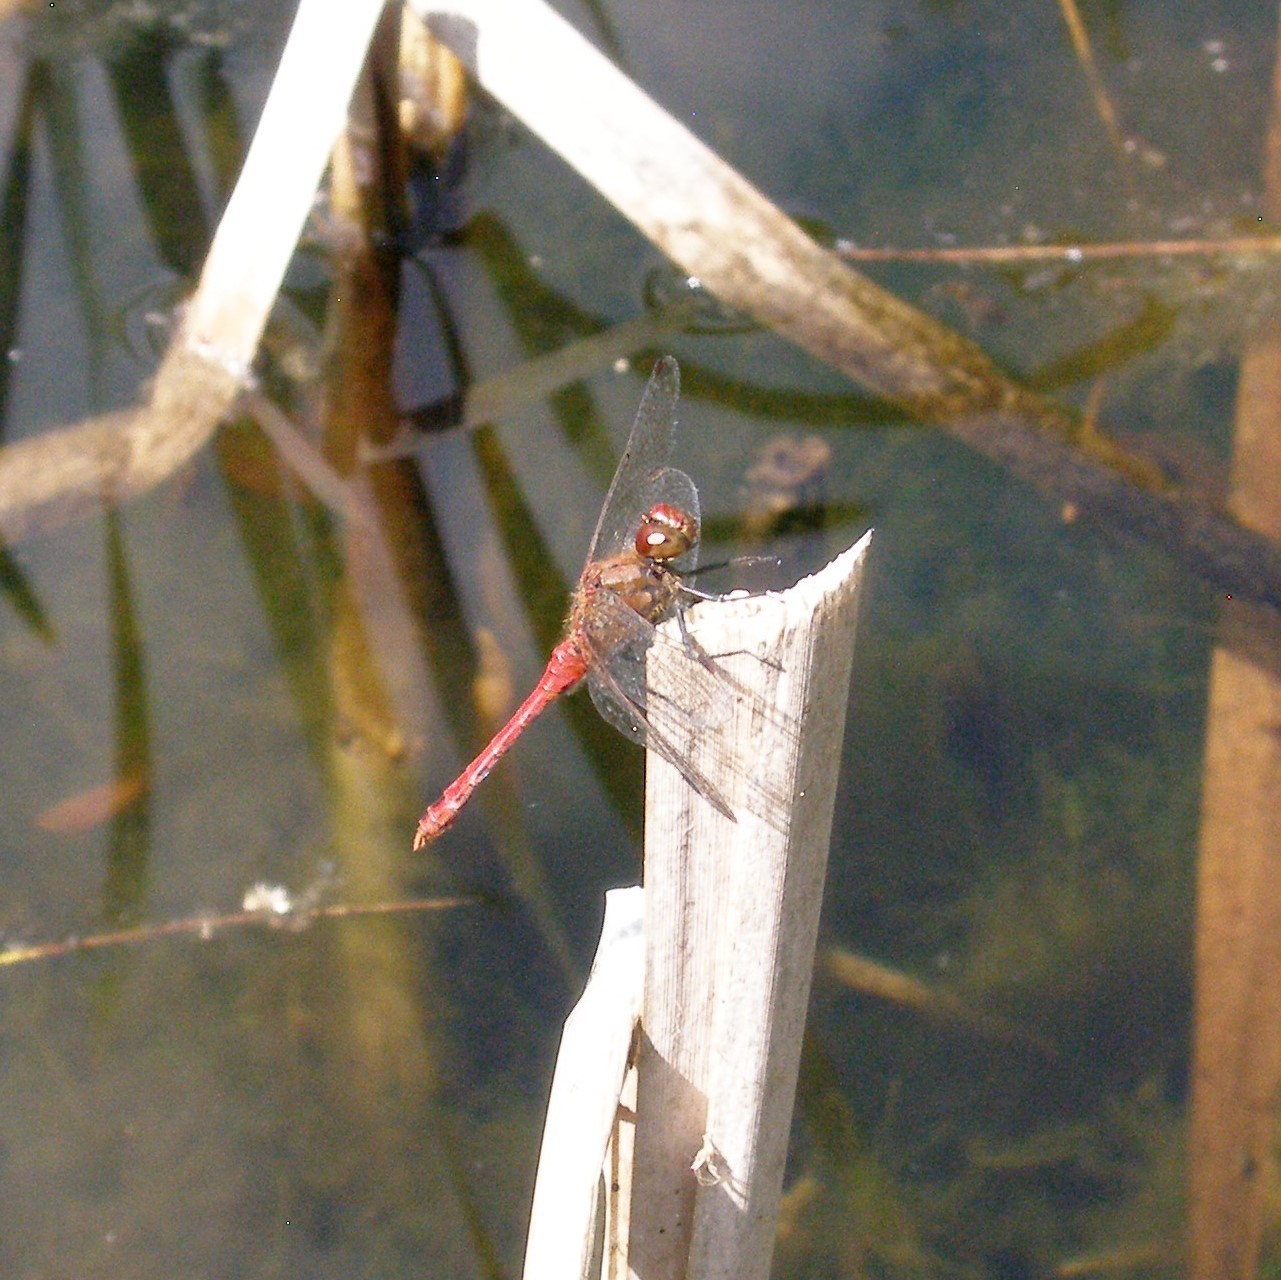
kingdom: Animalia
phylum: Arthropoda
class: Insecta
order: Odonata
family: Libellulidae
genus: Sympetrum
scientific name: Sympetrum sanguineum
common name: Ruddy darter
